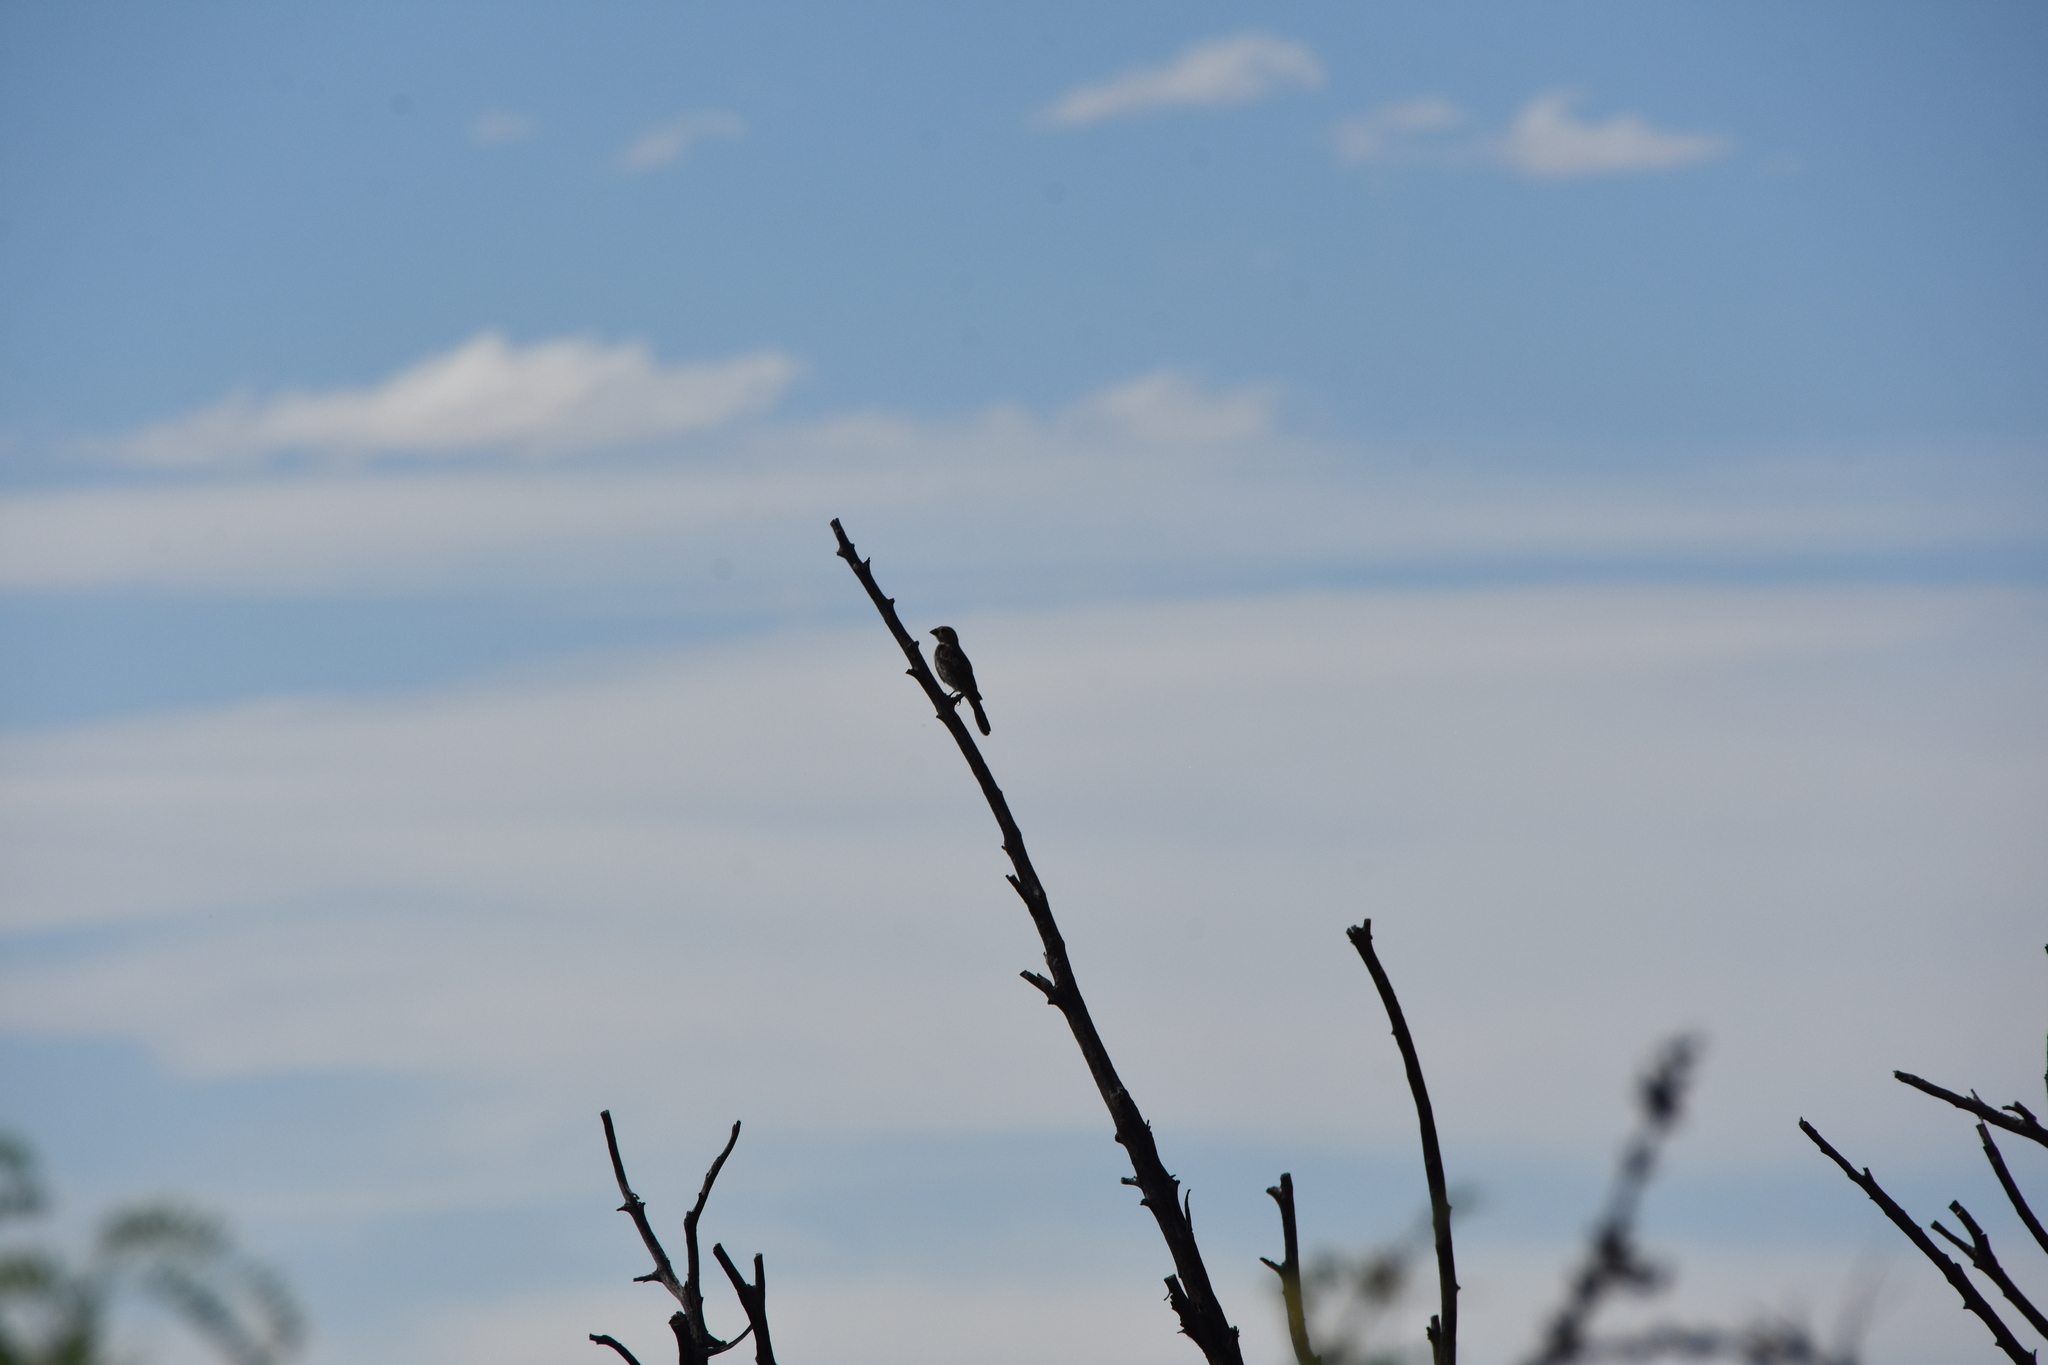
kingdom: Animalia
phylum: Chordata
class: Aves
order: Passeriformes
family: Fringillidae
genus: Haemorhous
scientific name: Haemorhous mexicanus
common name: House finch
